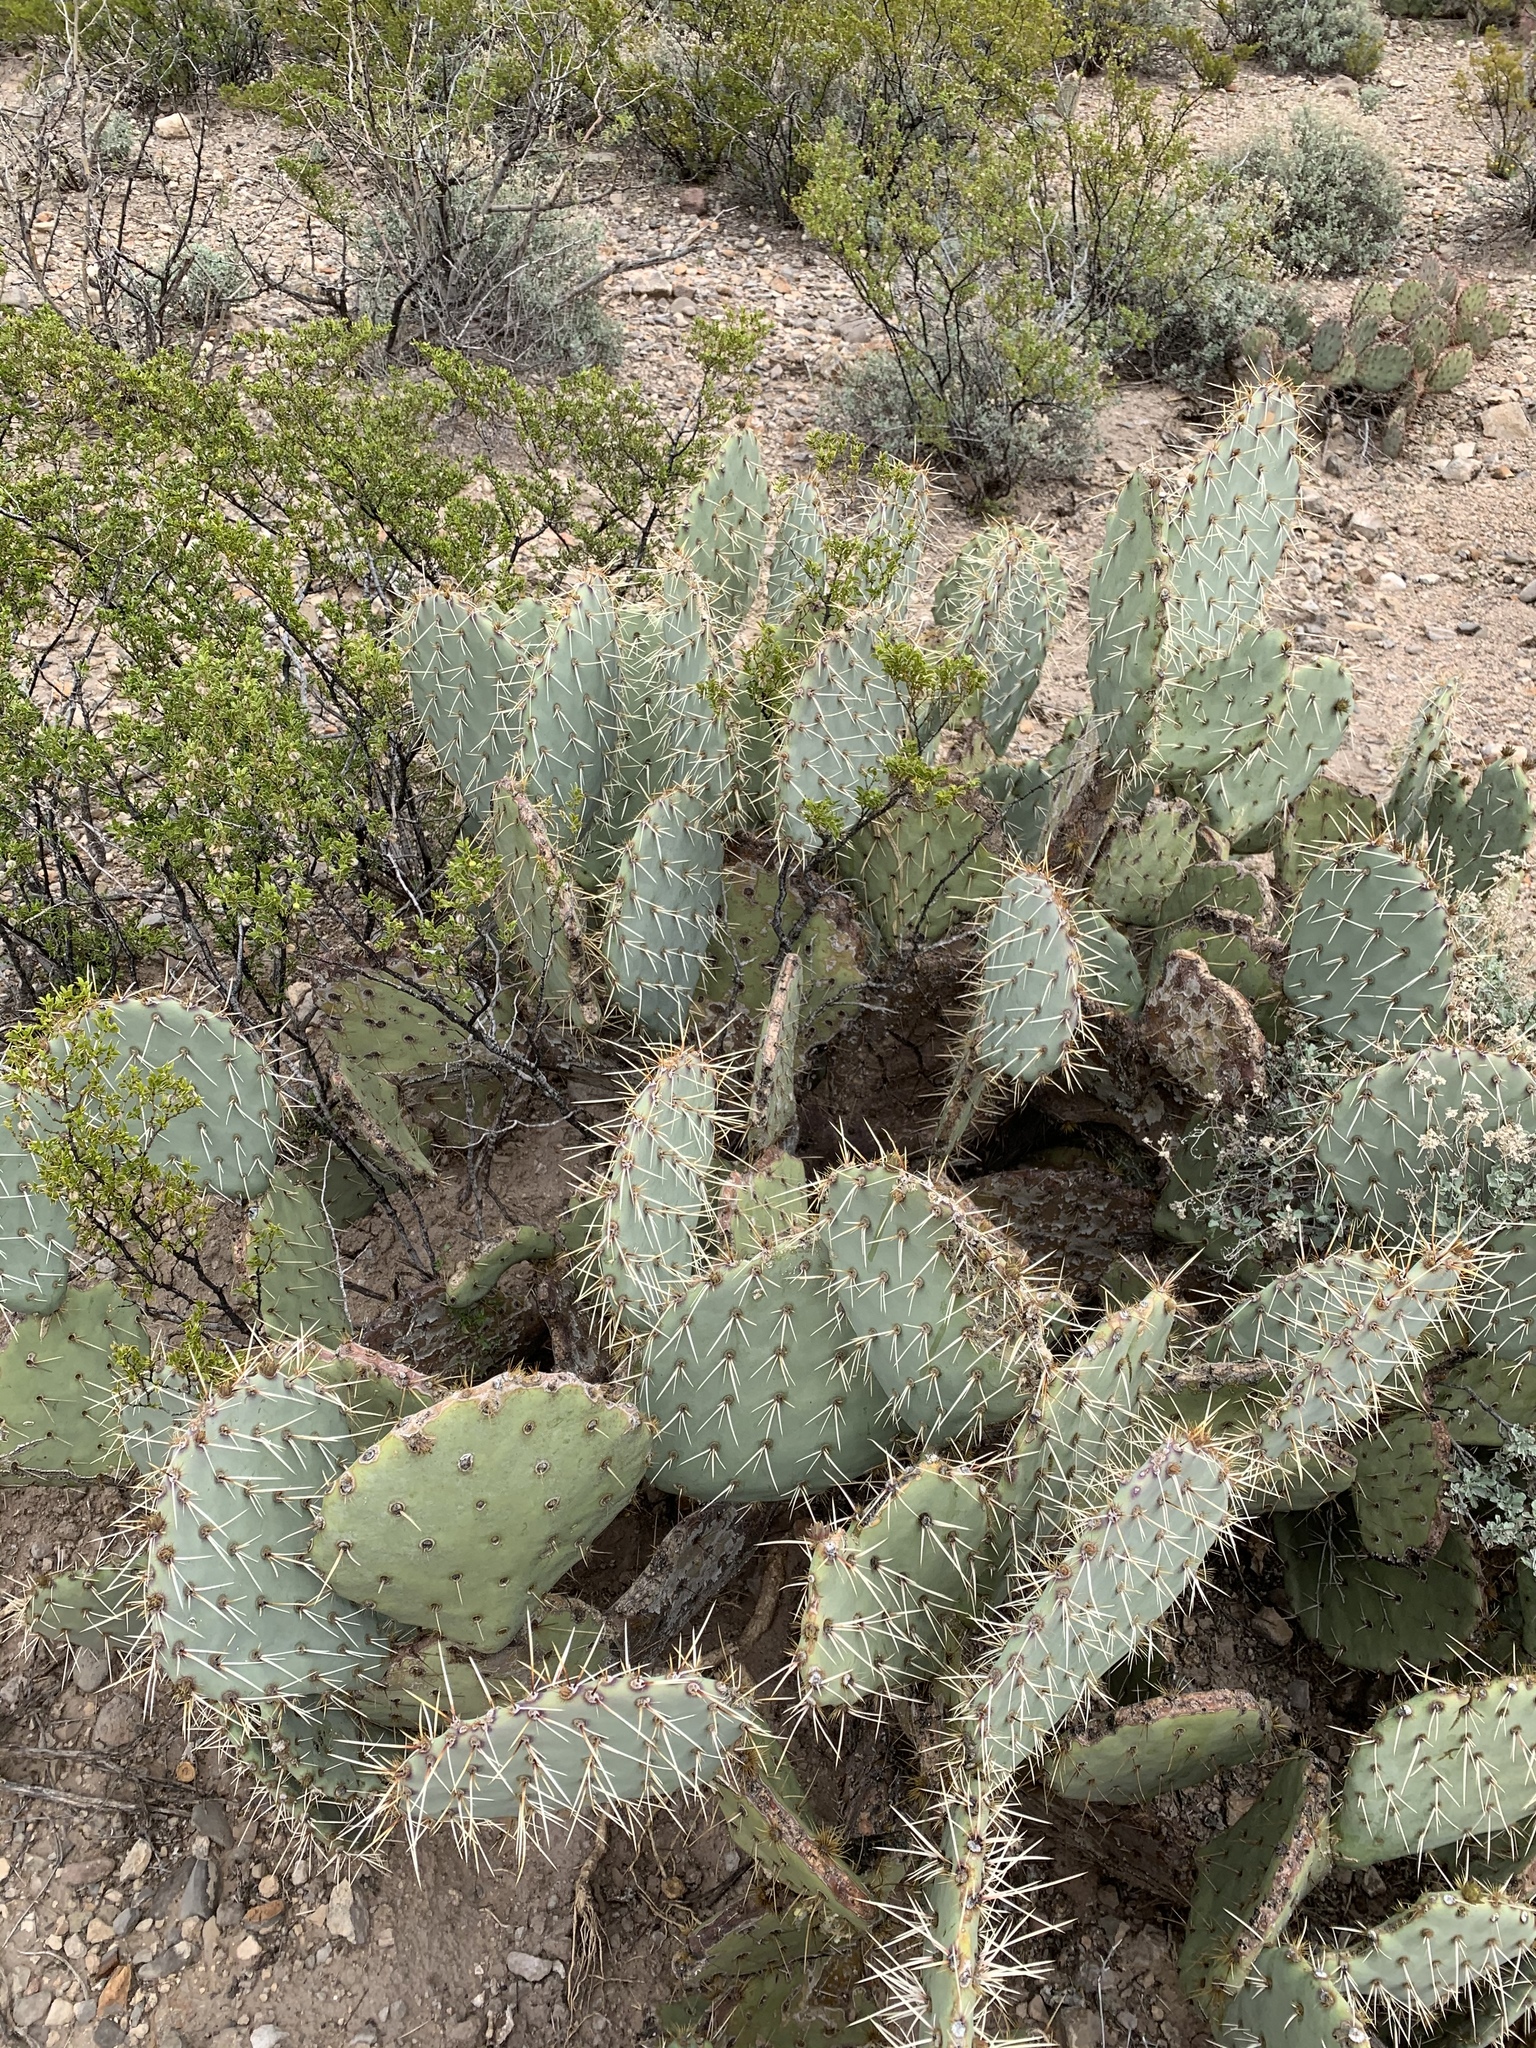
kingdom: Plantae
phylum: Tracheophyta
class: Magnoliopsida
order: Caryophyllales
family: Cactaceae
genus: Opuntia
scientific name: Opuntia phaeacantha
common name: New mexico prickly-pear
